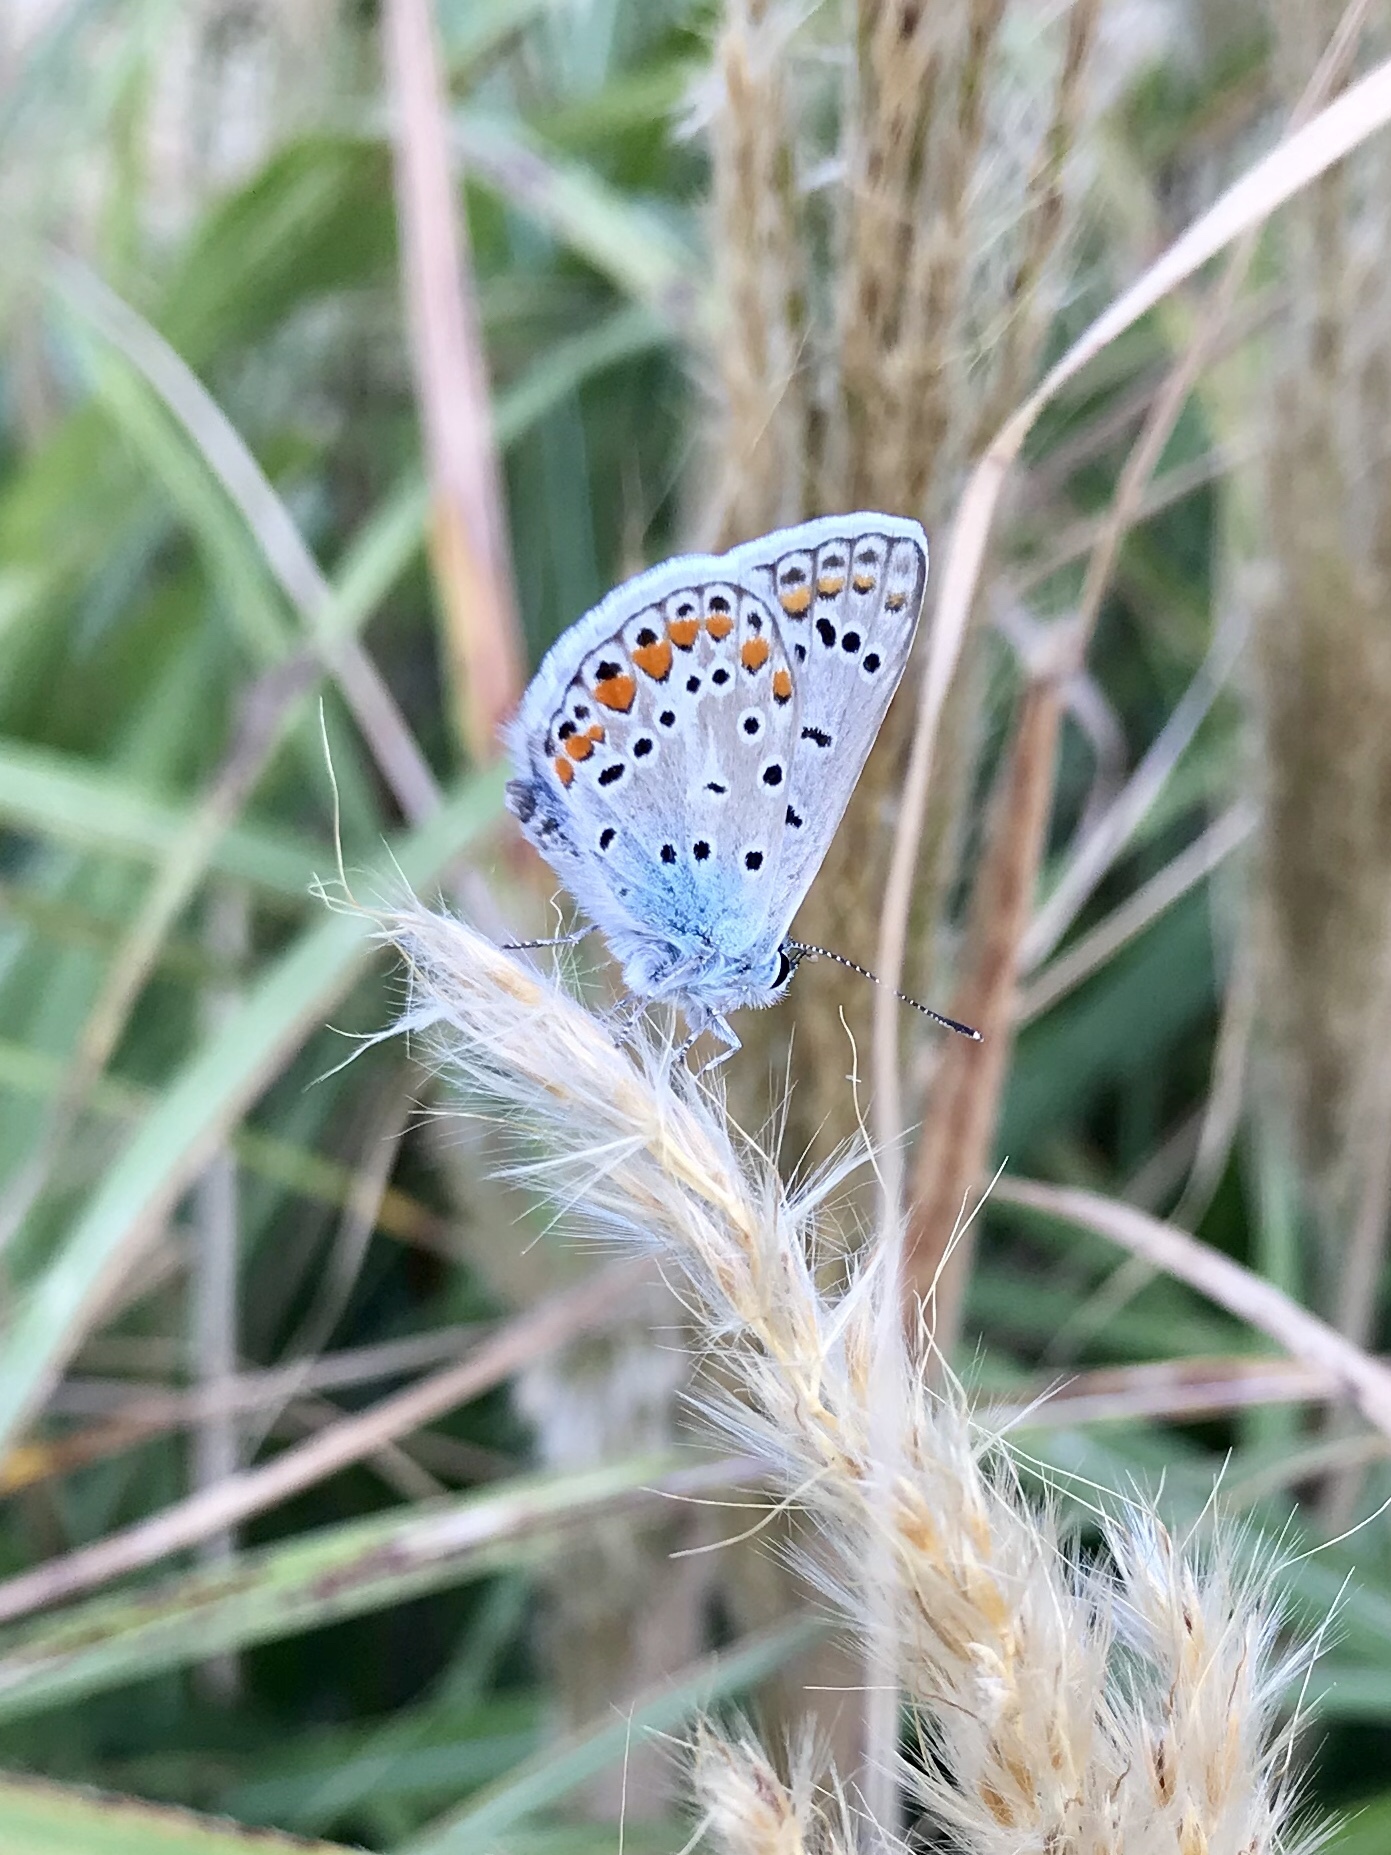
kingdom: Animalia
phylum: Arthropoda
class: Insecta
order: Lepidoptera
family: Lycaenidae
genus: Polyommatus
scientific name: Polyommatus icarus
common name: Common blue
